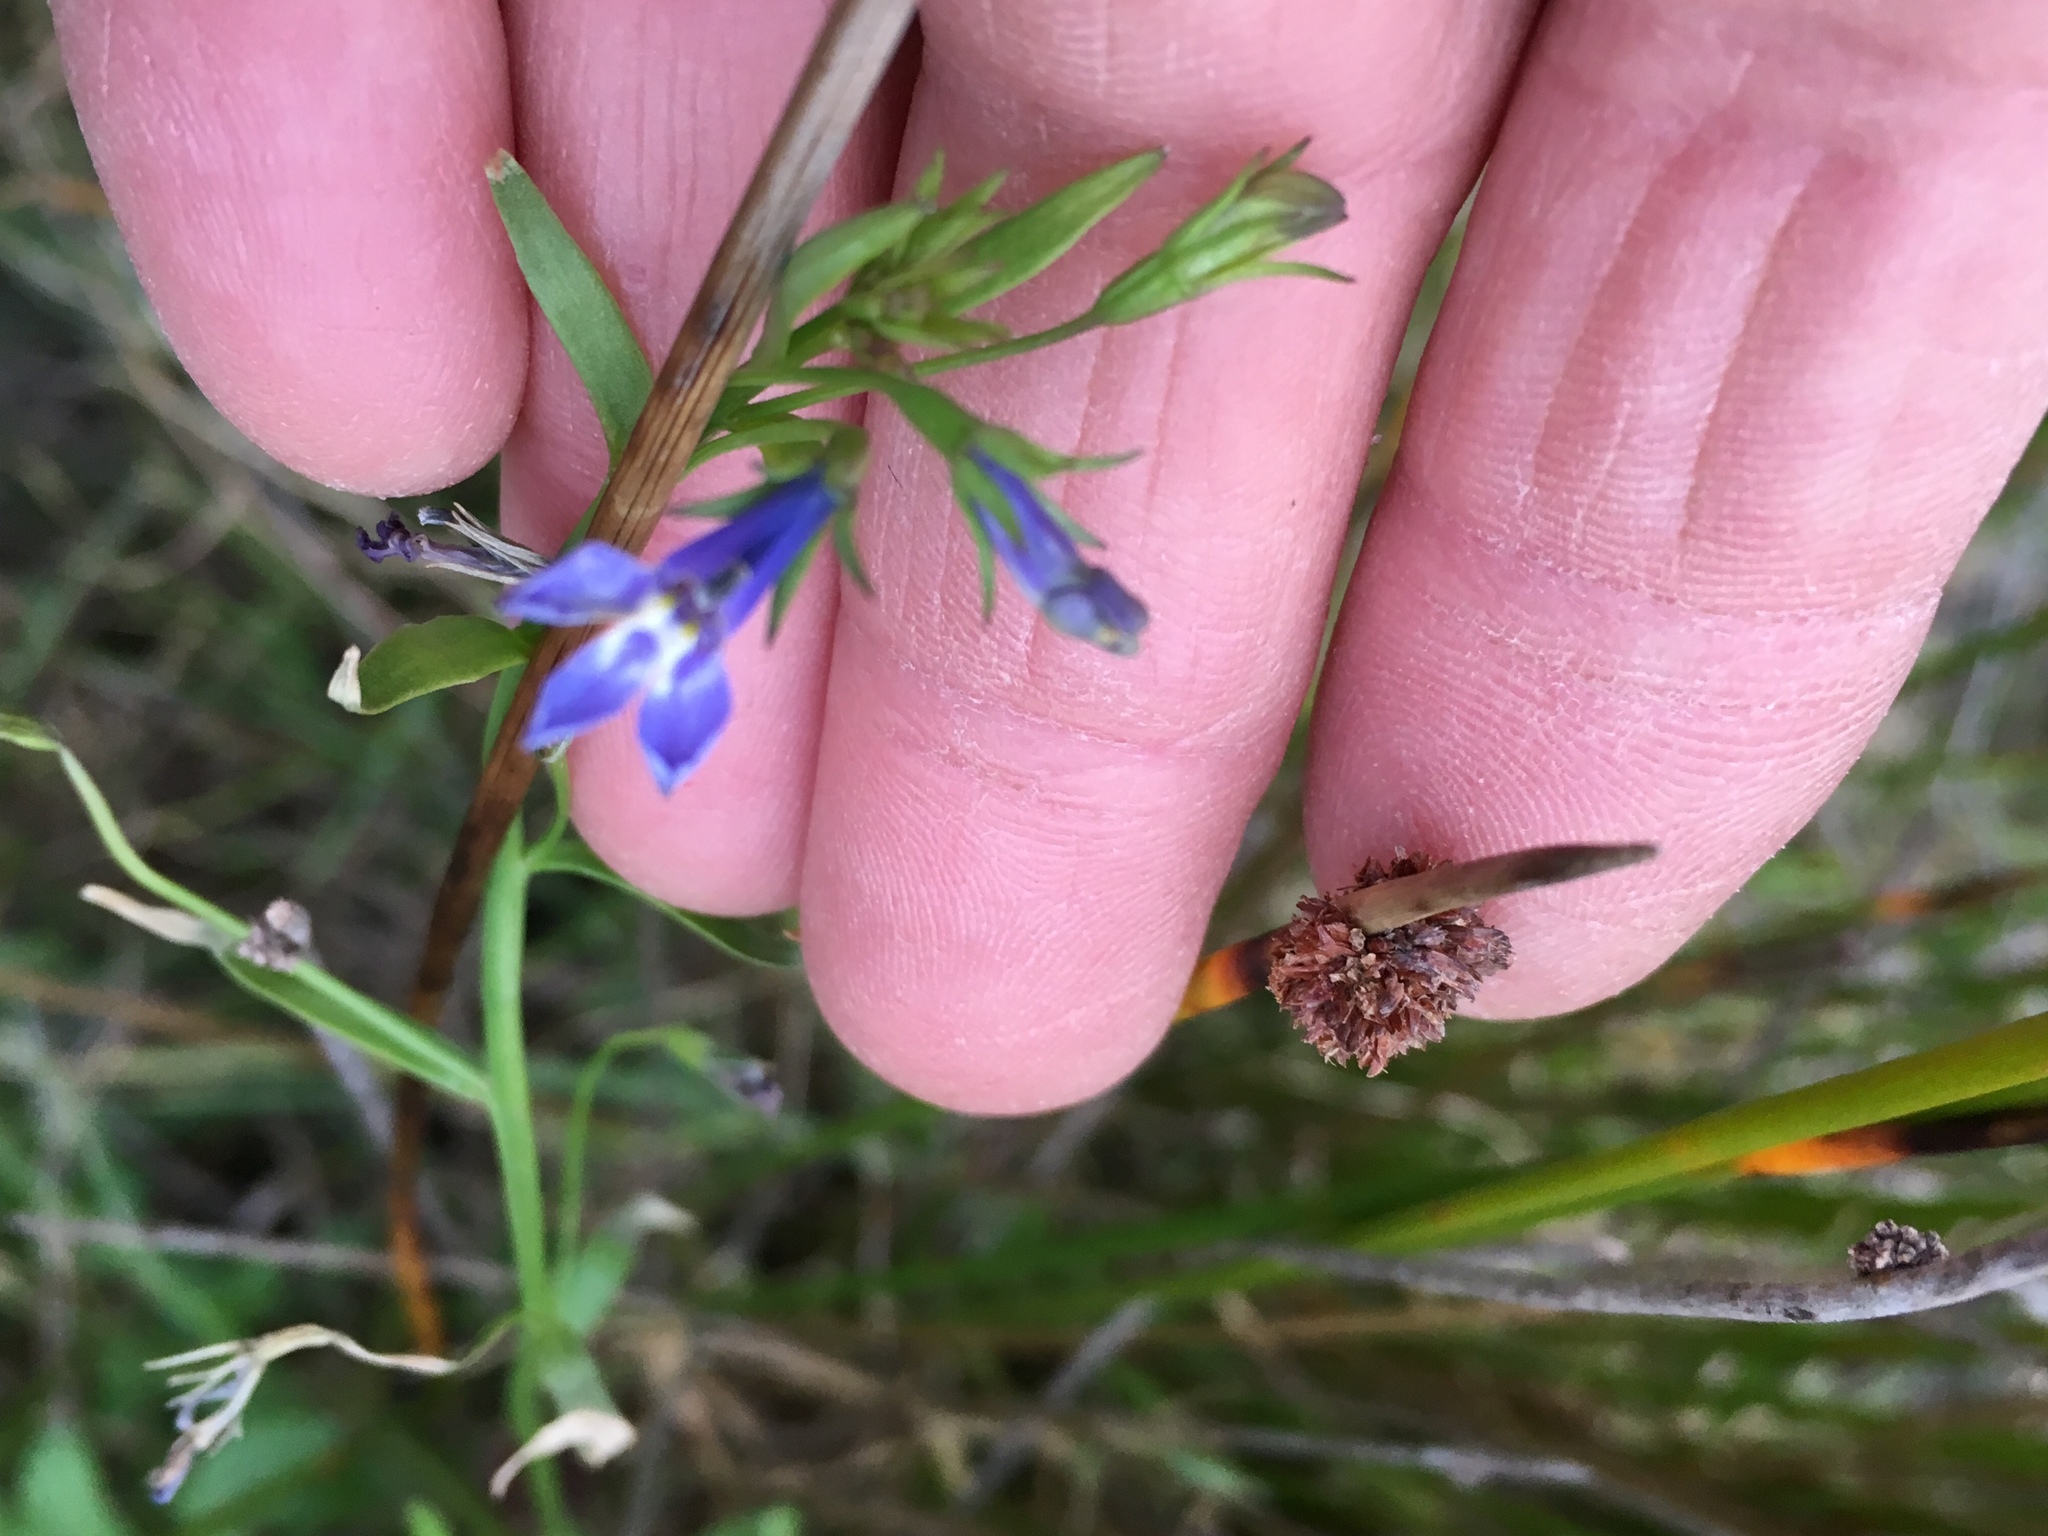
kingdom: Plantae
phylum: Tracheophyta
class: Magnoliopsida
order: Asterales
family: Campanulaceae
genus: Lobelia
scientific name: Lobelia erinus
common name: Edging lobelia
